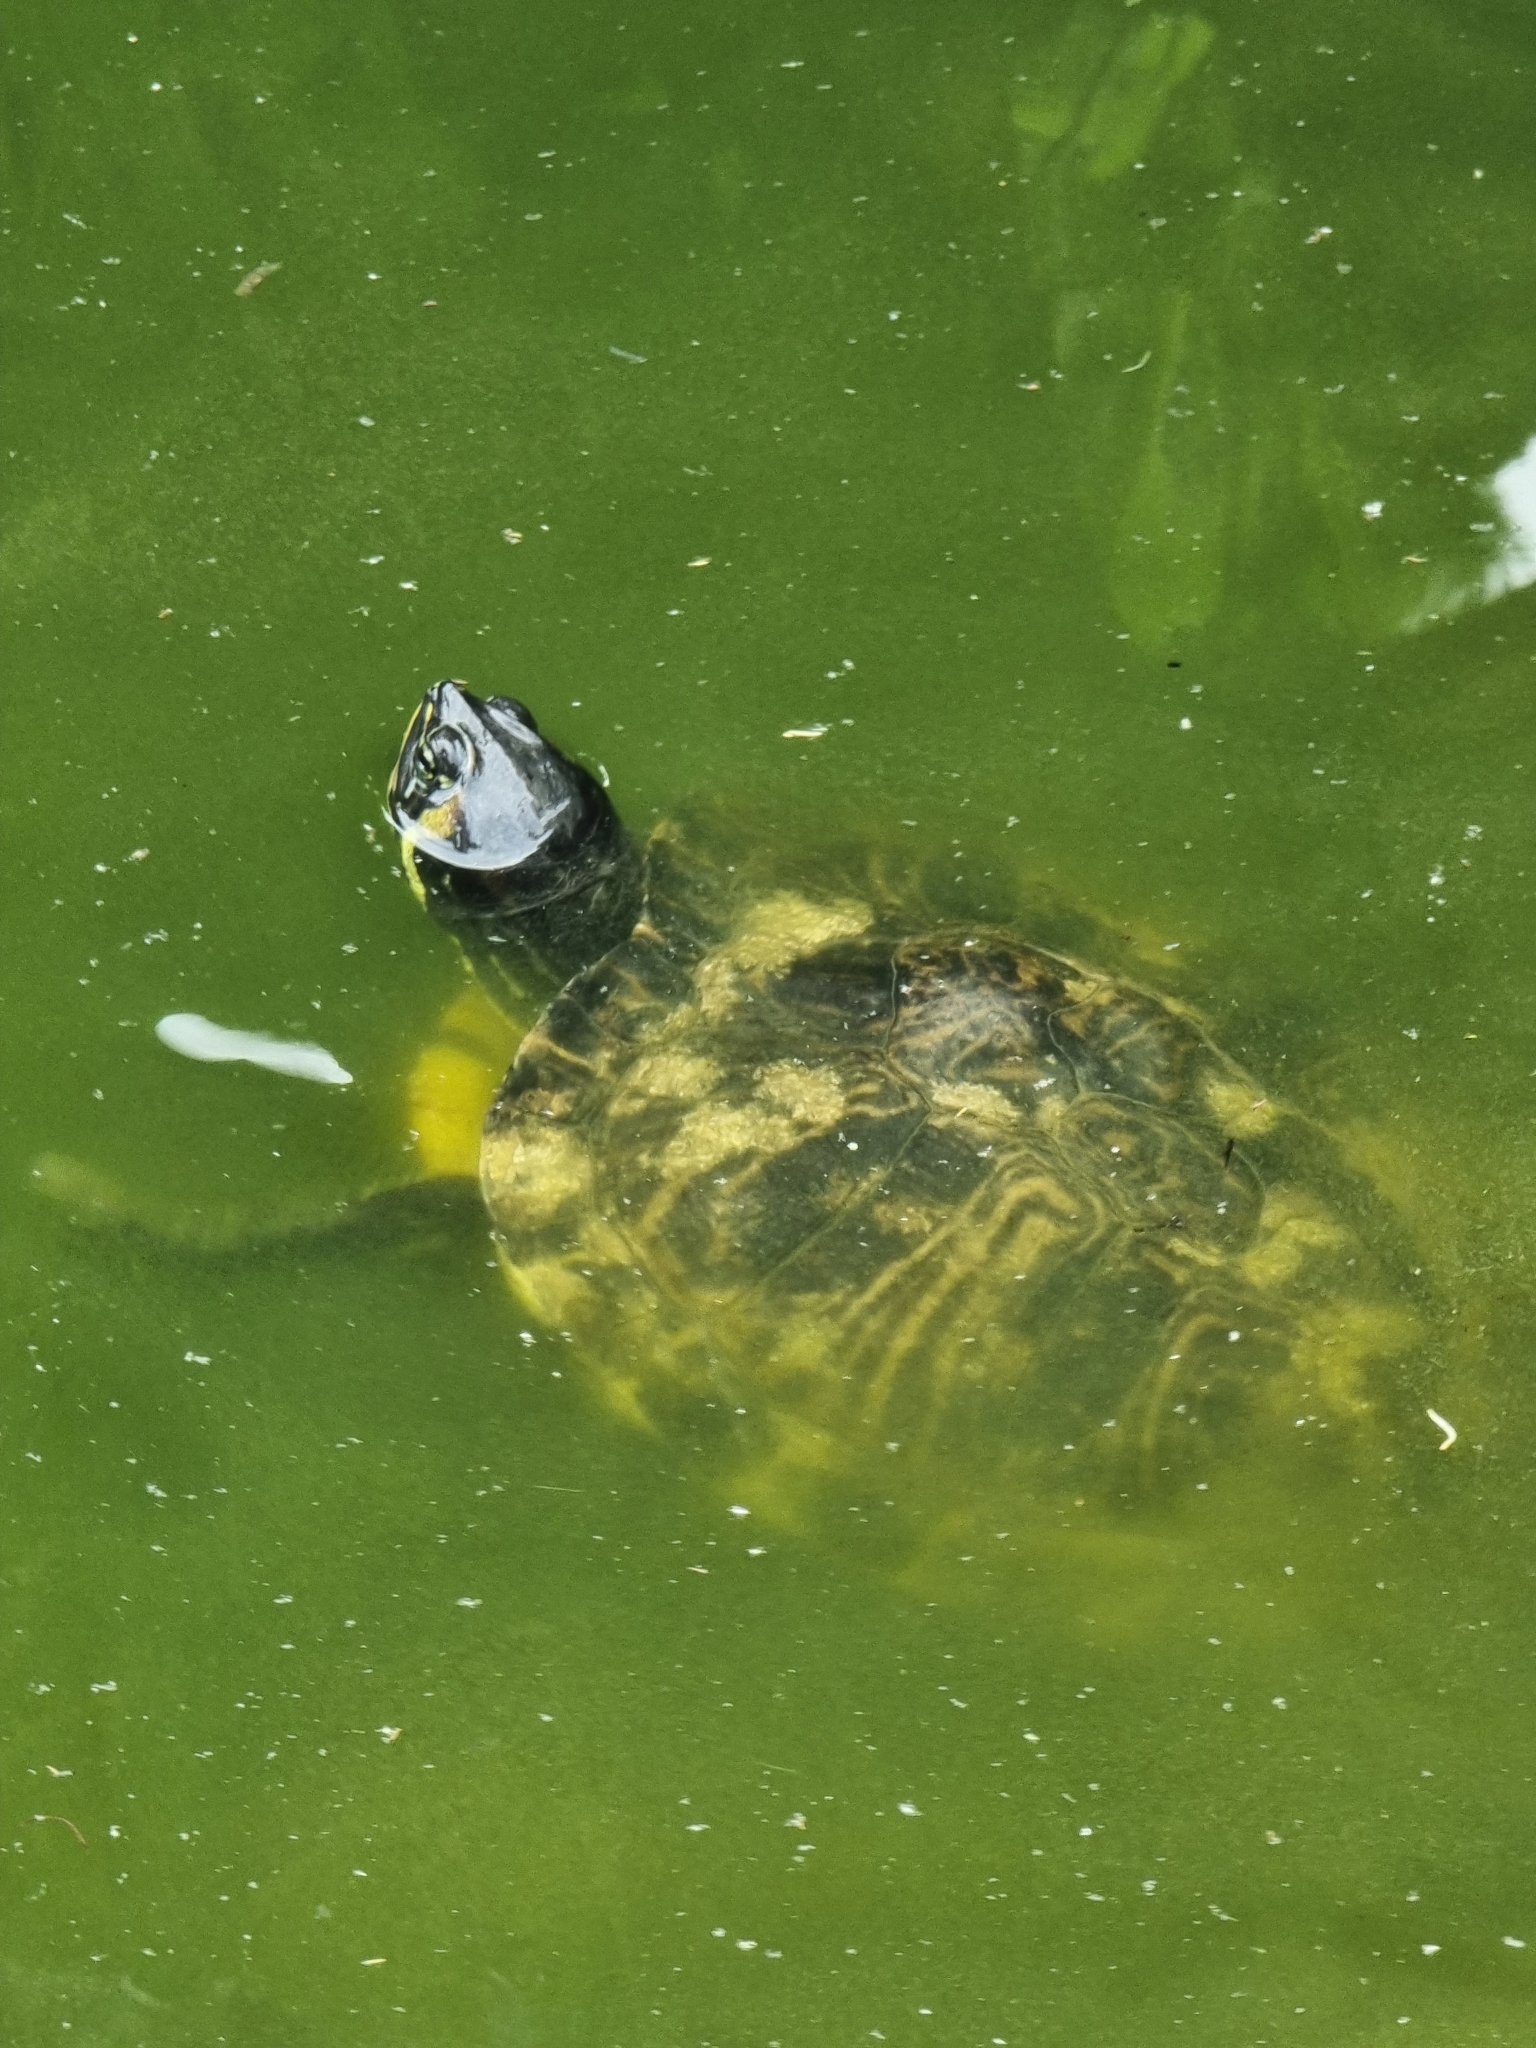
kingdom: Animalia
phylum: Chordata
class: Testudines
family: Emydidae
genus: Trachemys
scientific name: Trachemys scripta
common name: Slider
